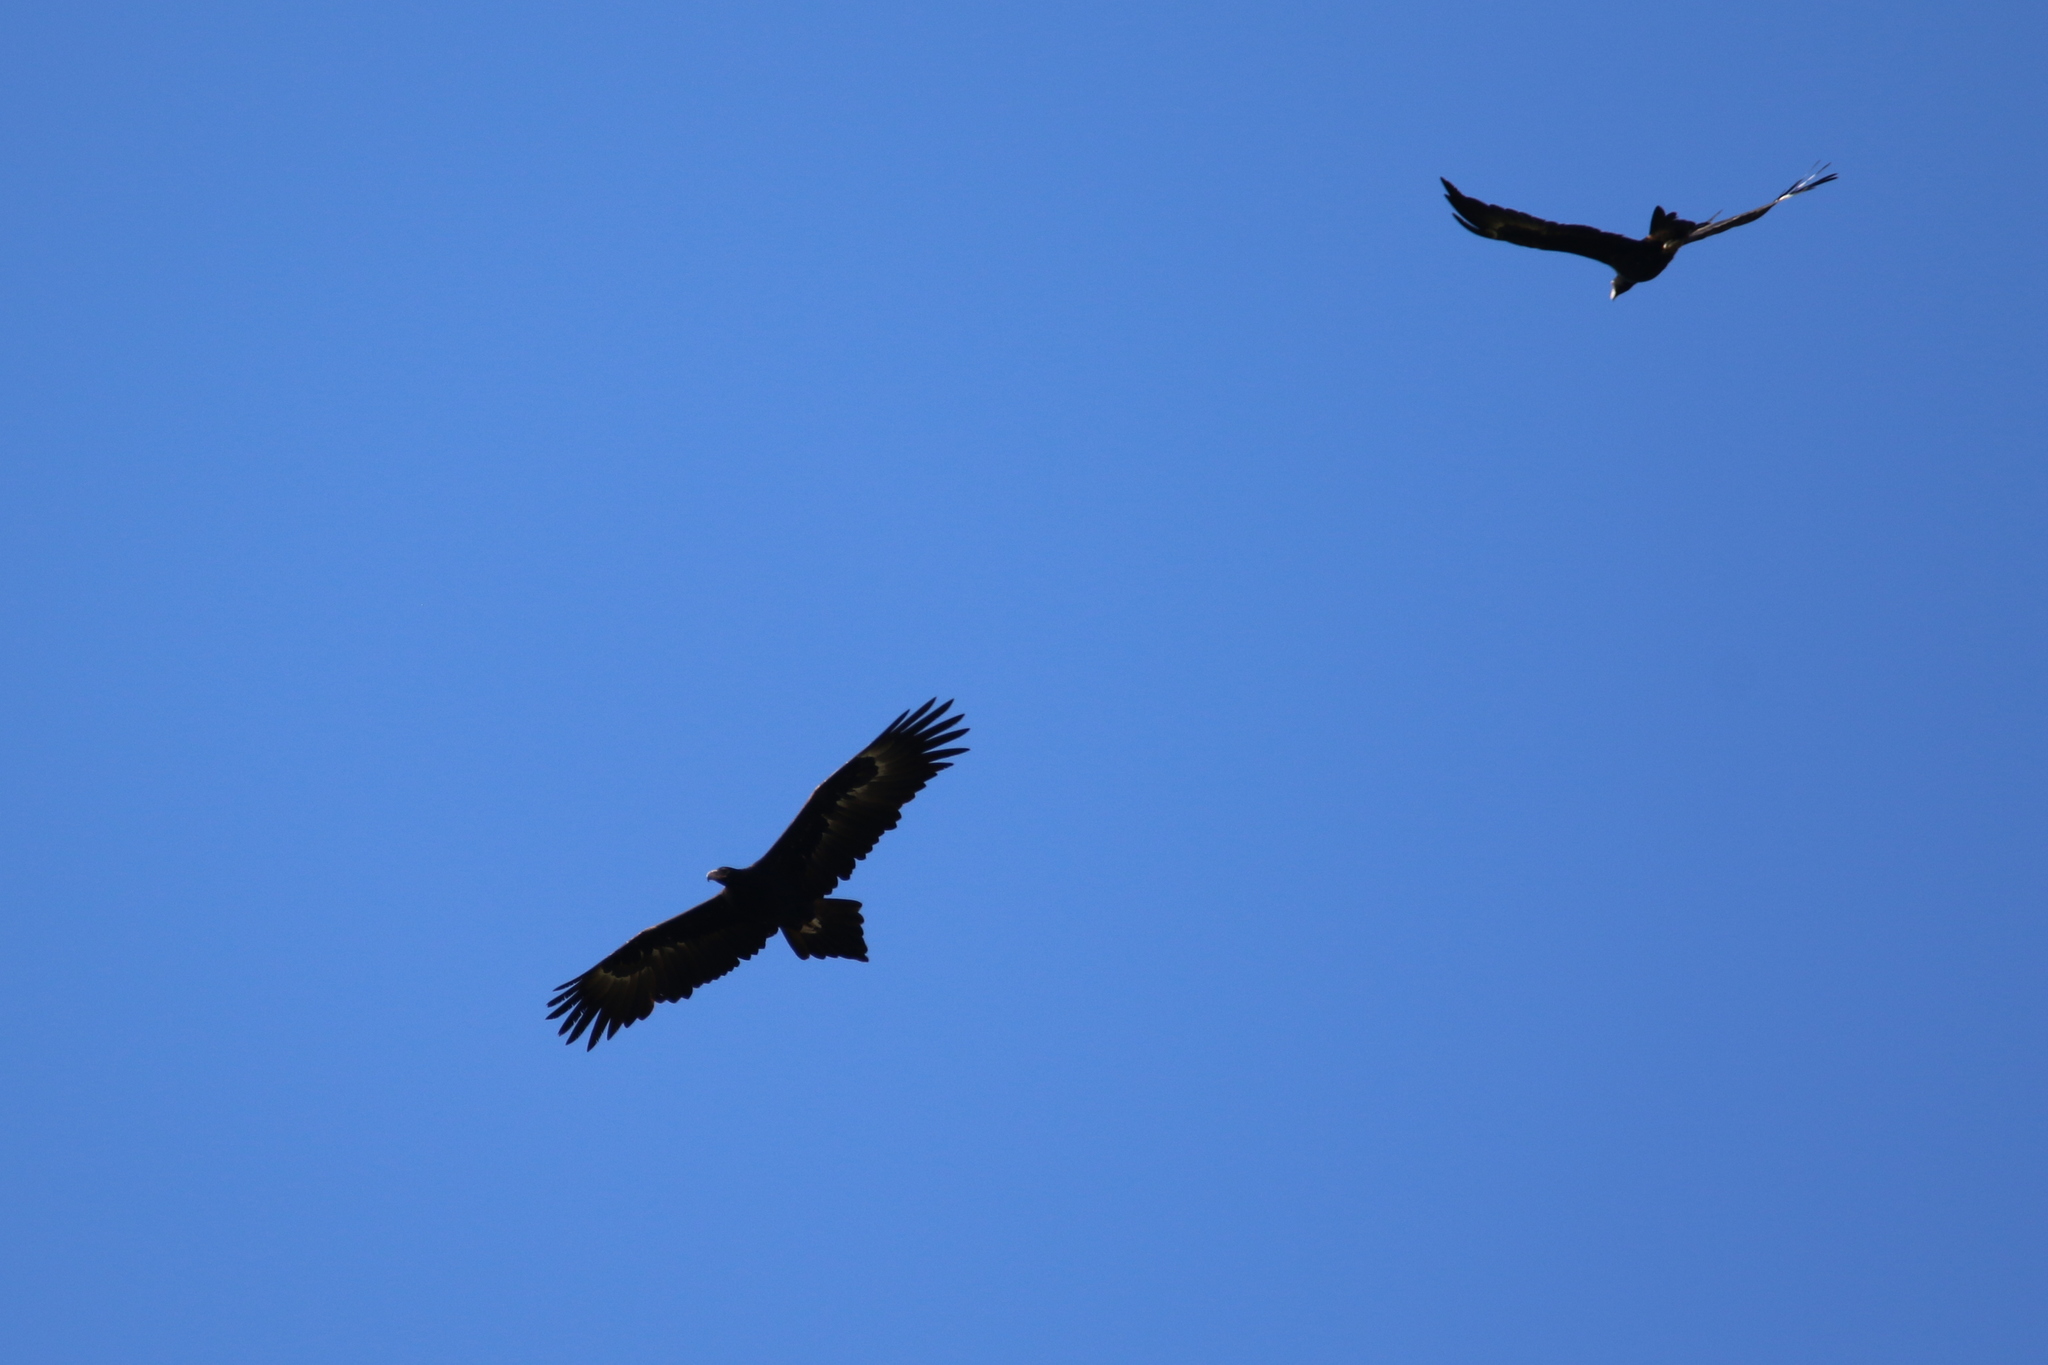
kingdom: Animalia
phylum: Chordata
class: Aves
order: Accipitriformes
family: Accipitridae
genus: Aquila
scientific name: Aquila audax
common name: Wedge-tailed eagle
